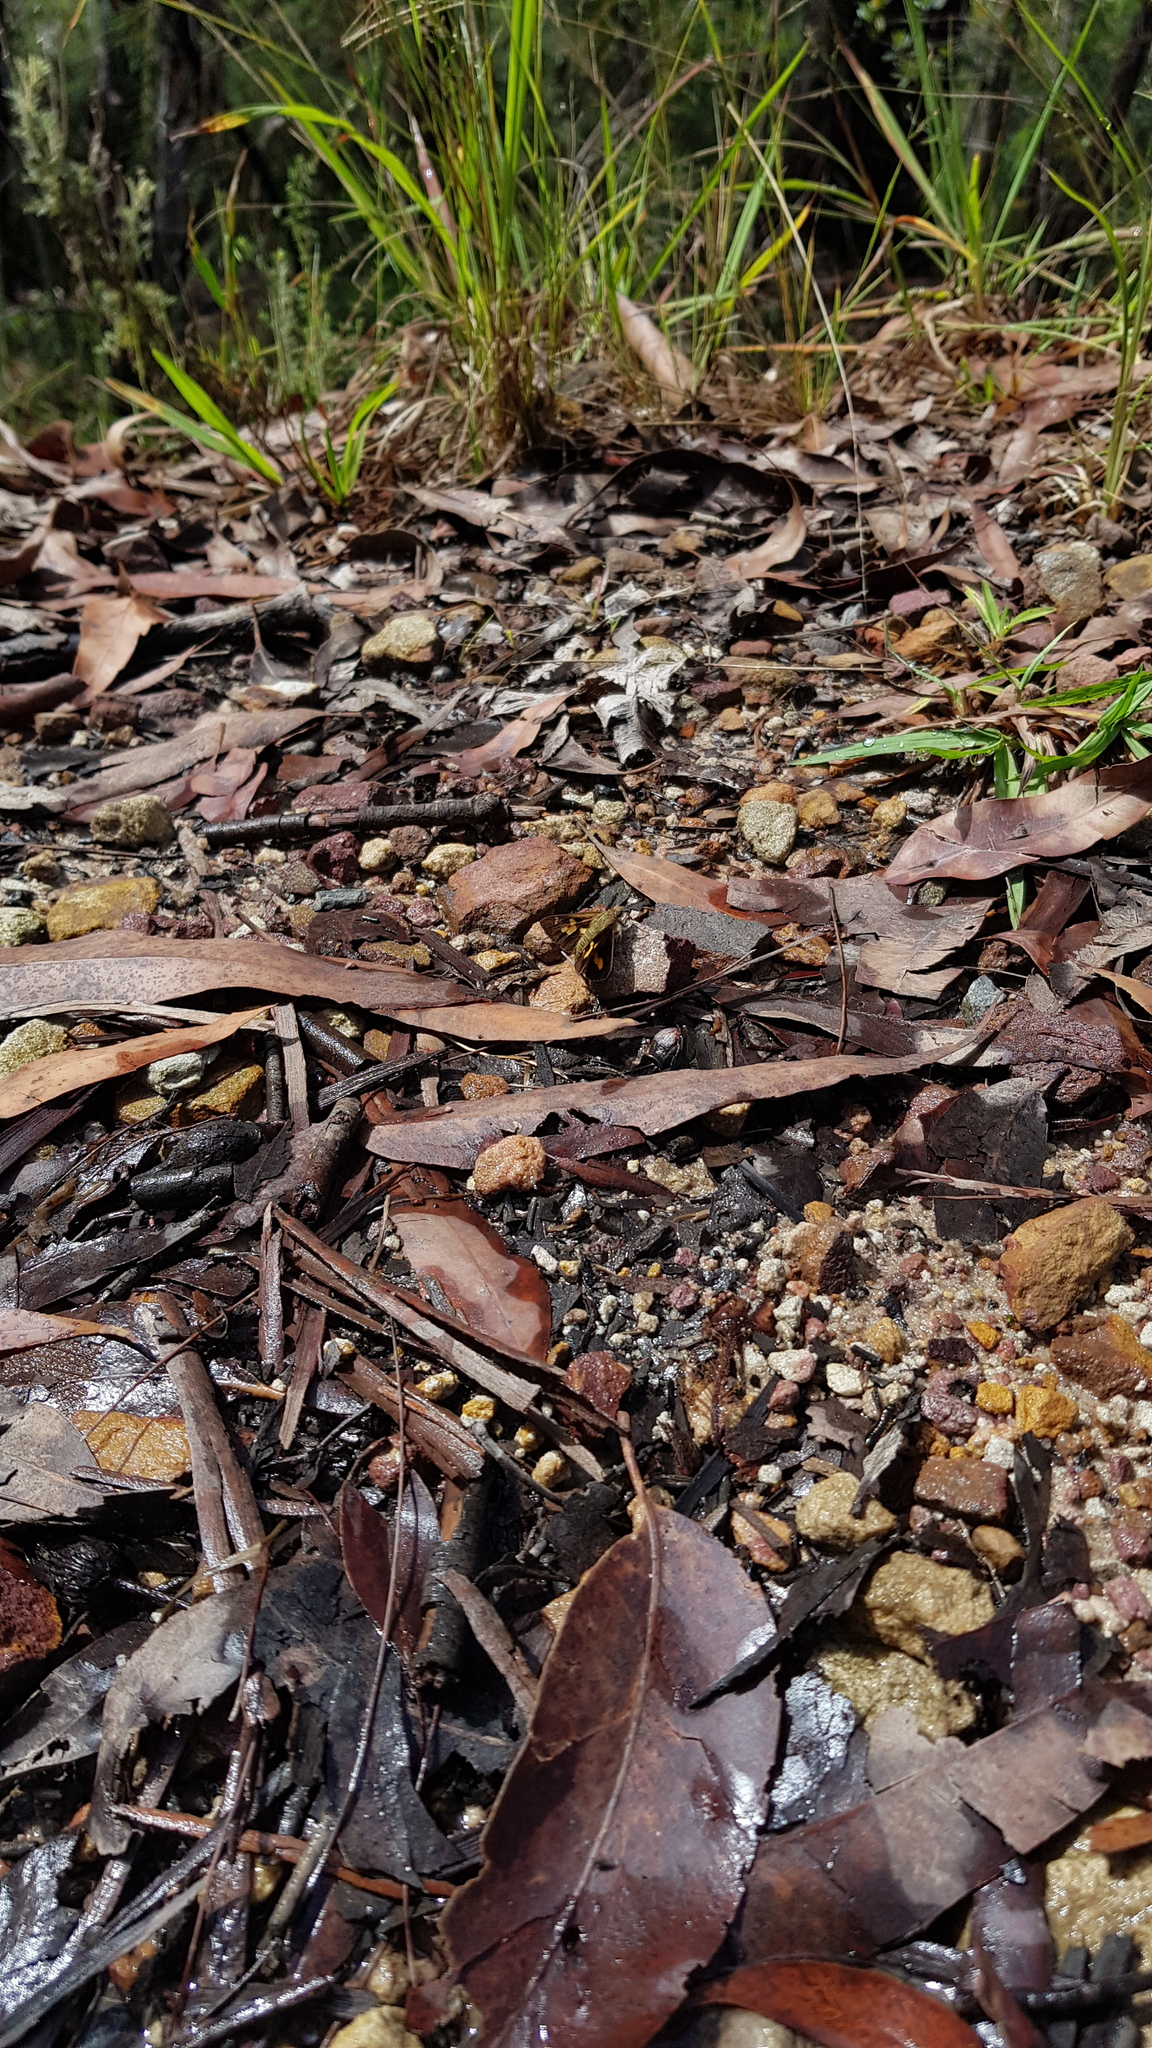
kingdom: Animalia
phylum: Arthropoda
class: Insecta
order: Lepidoptera
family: Hesperiidae
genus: Trapezites
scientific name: Trapezites praxedes
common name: Southern silver ochre
